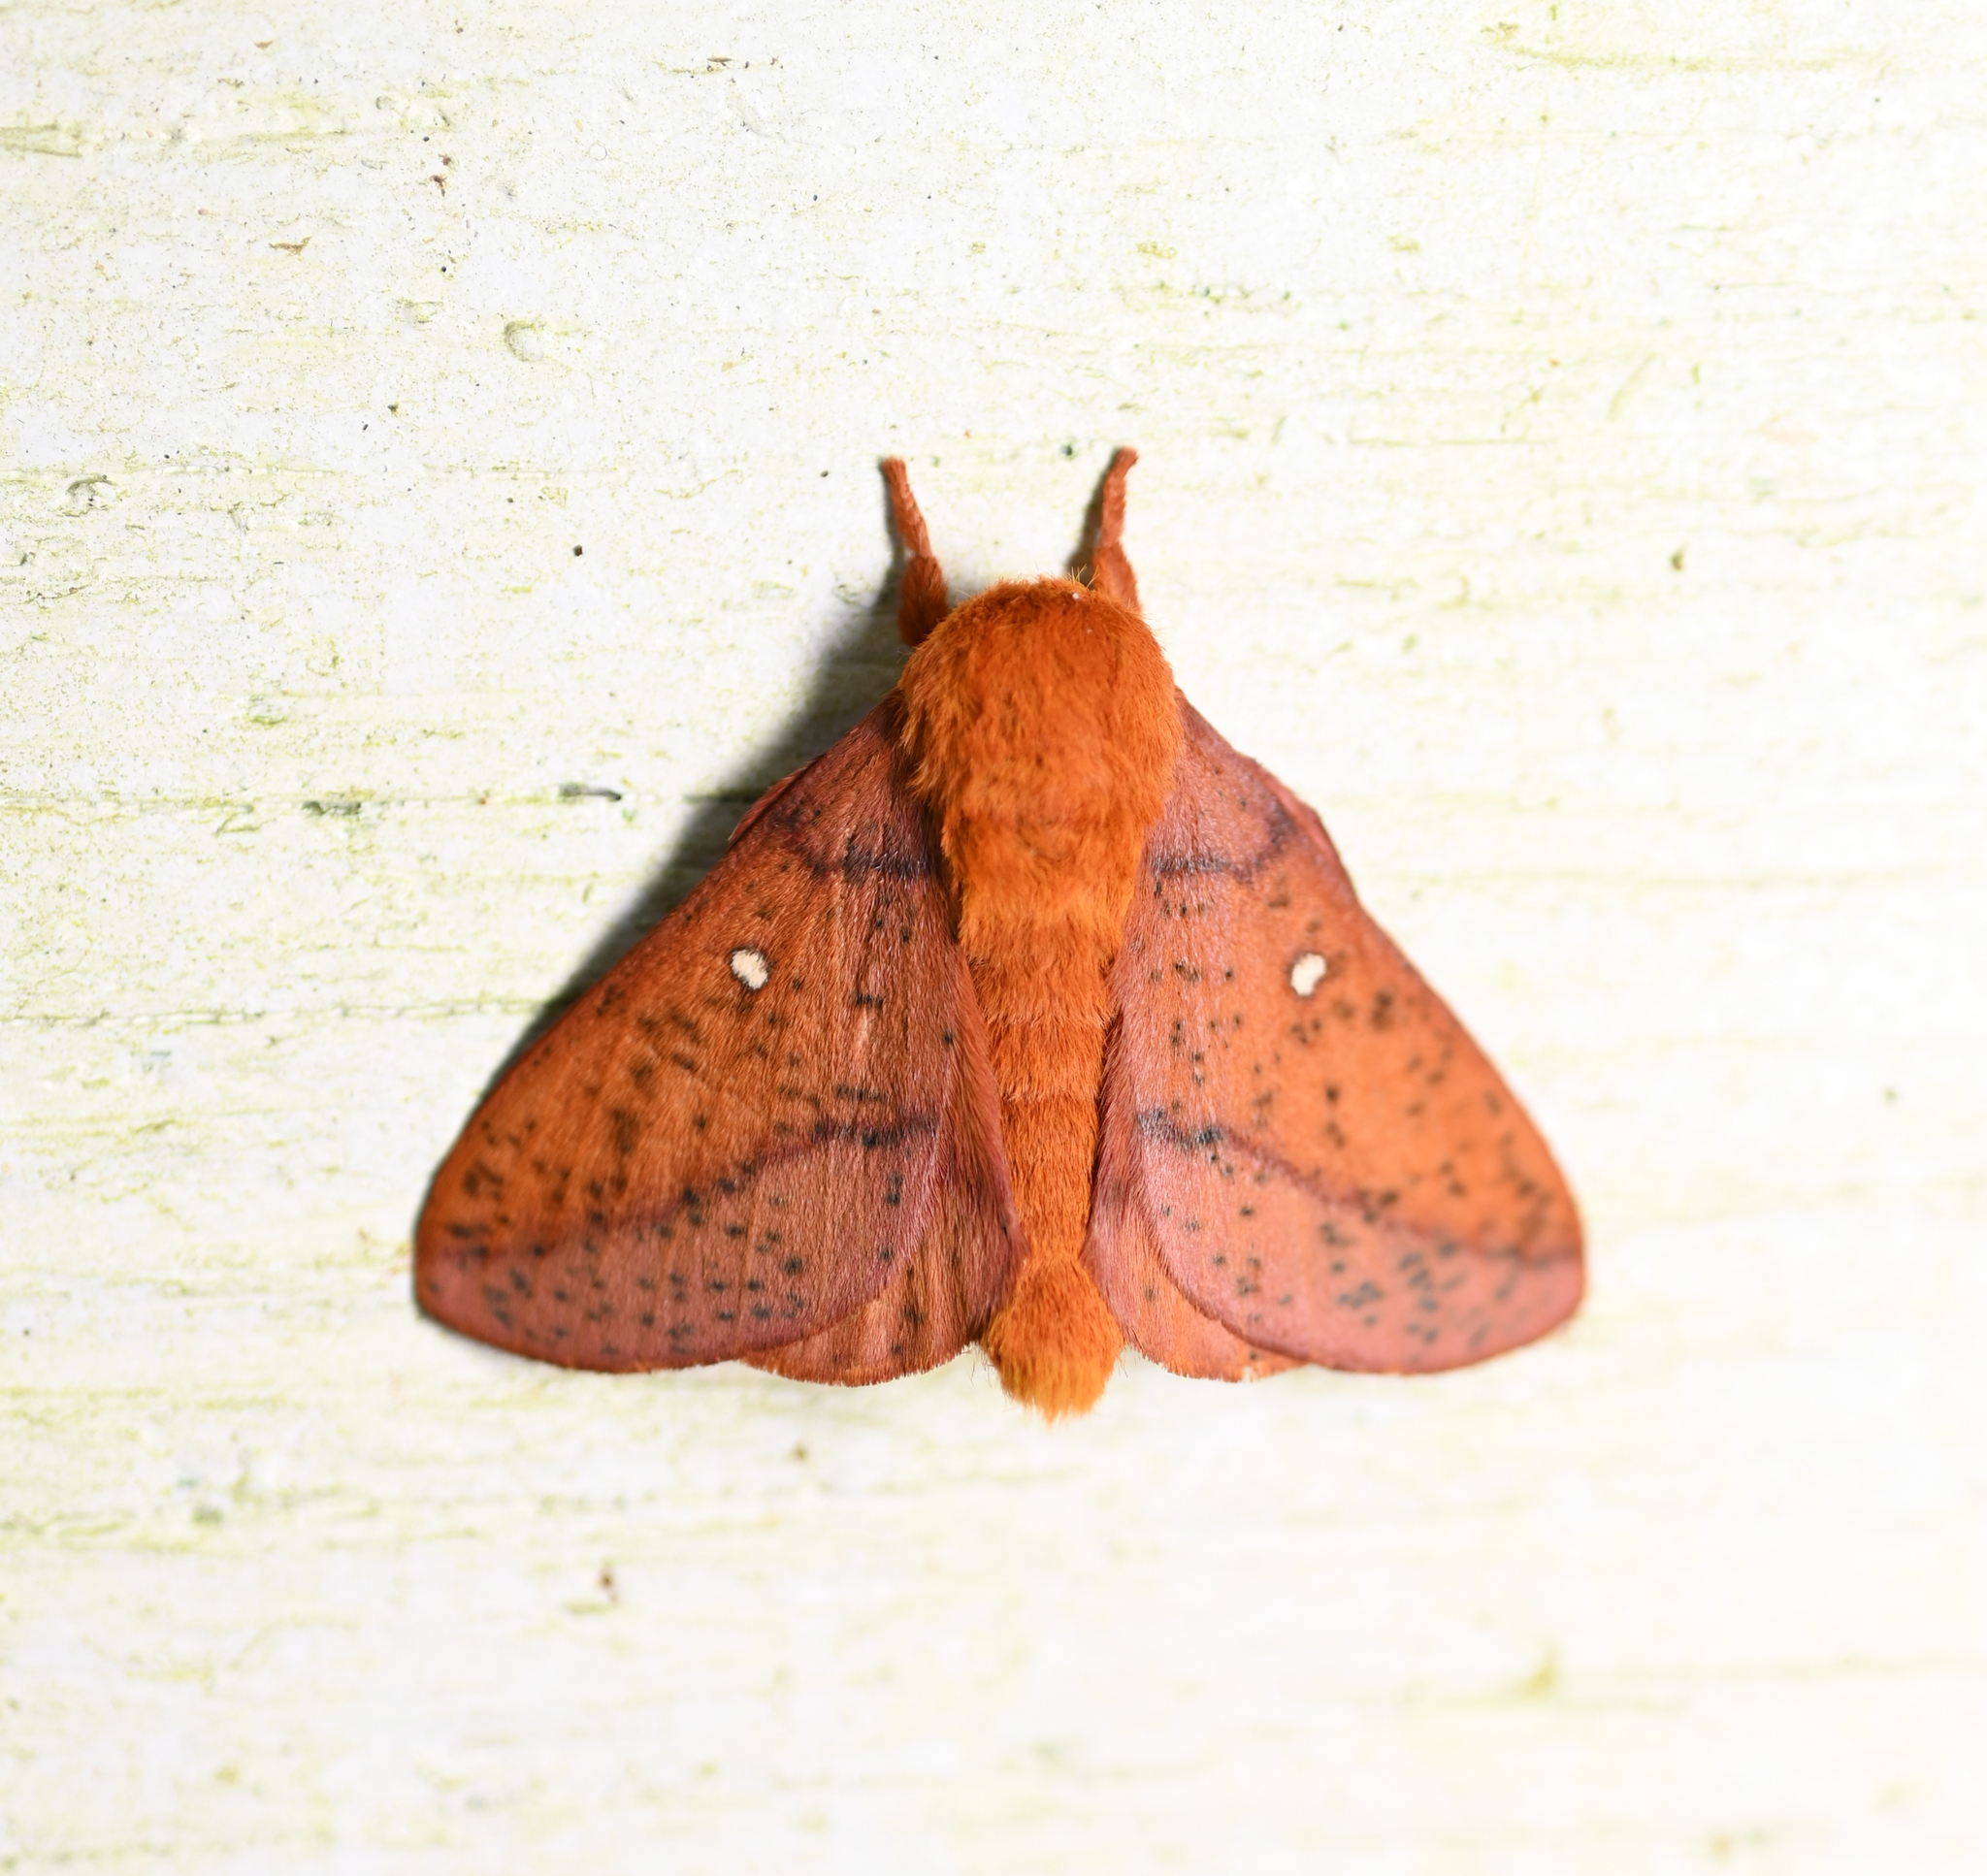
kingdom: Animalia
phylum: Arthropoda
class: Insecta
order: Lepidoptera
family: Saturniidae
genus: Anisota
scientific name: Anisota stigma
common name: Spiny oakworm moth
